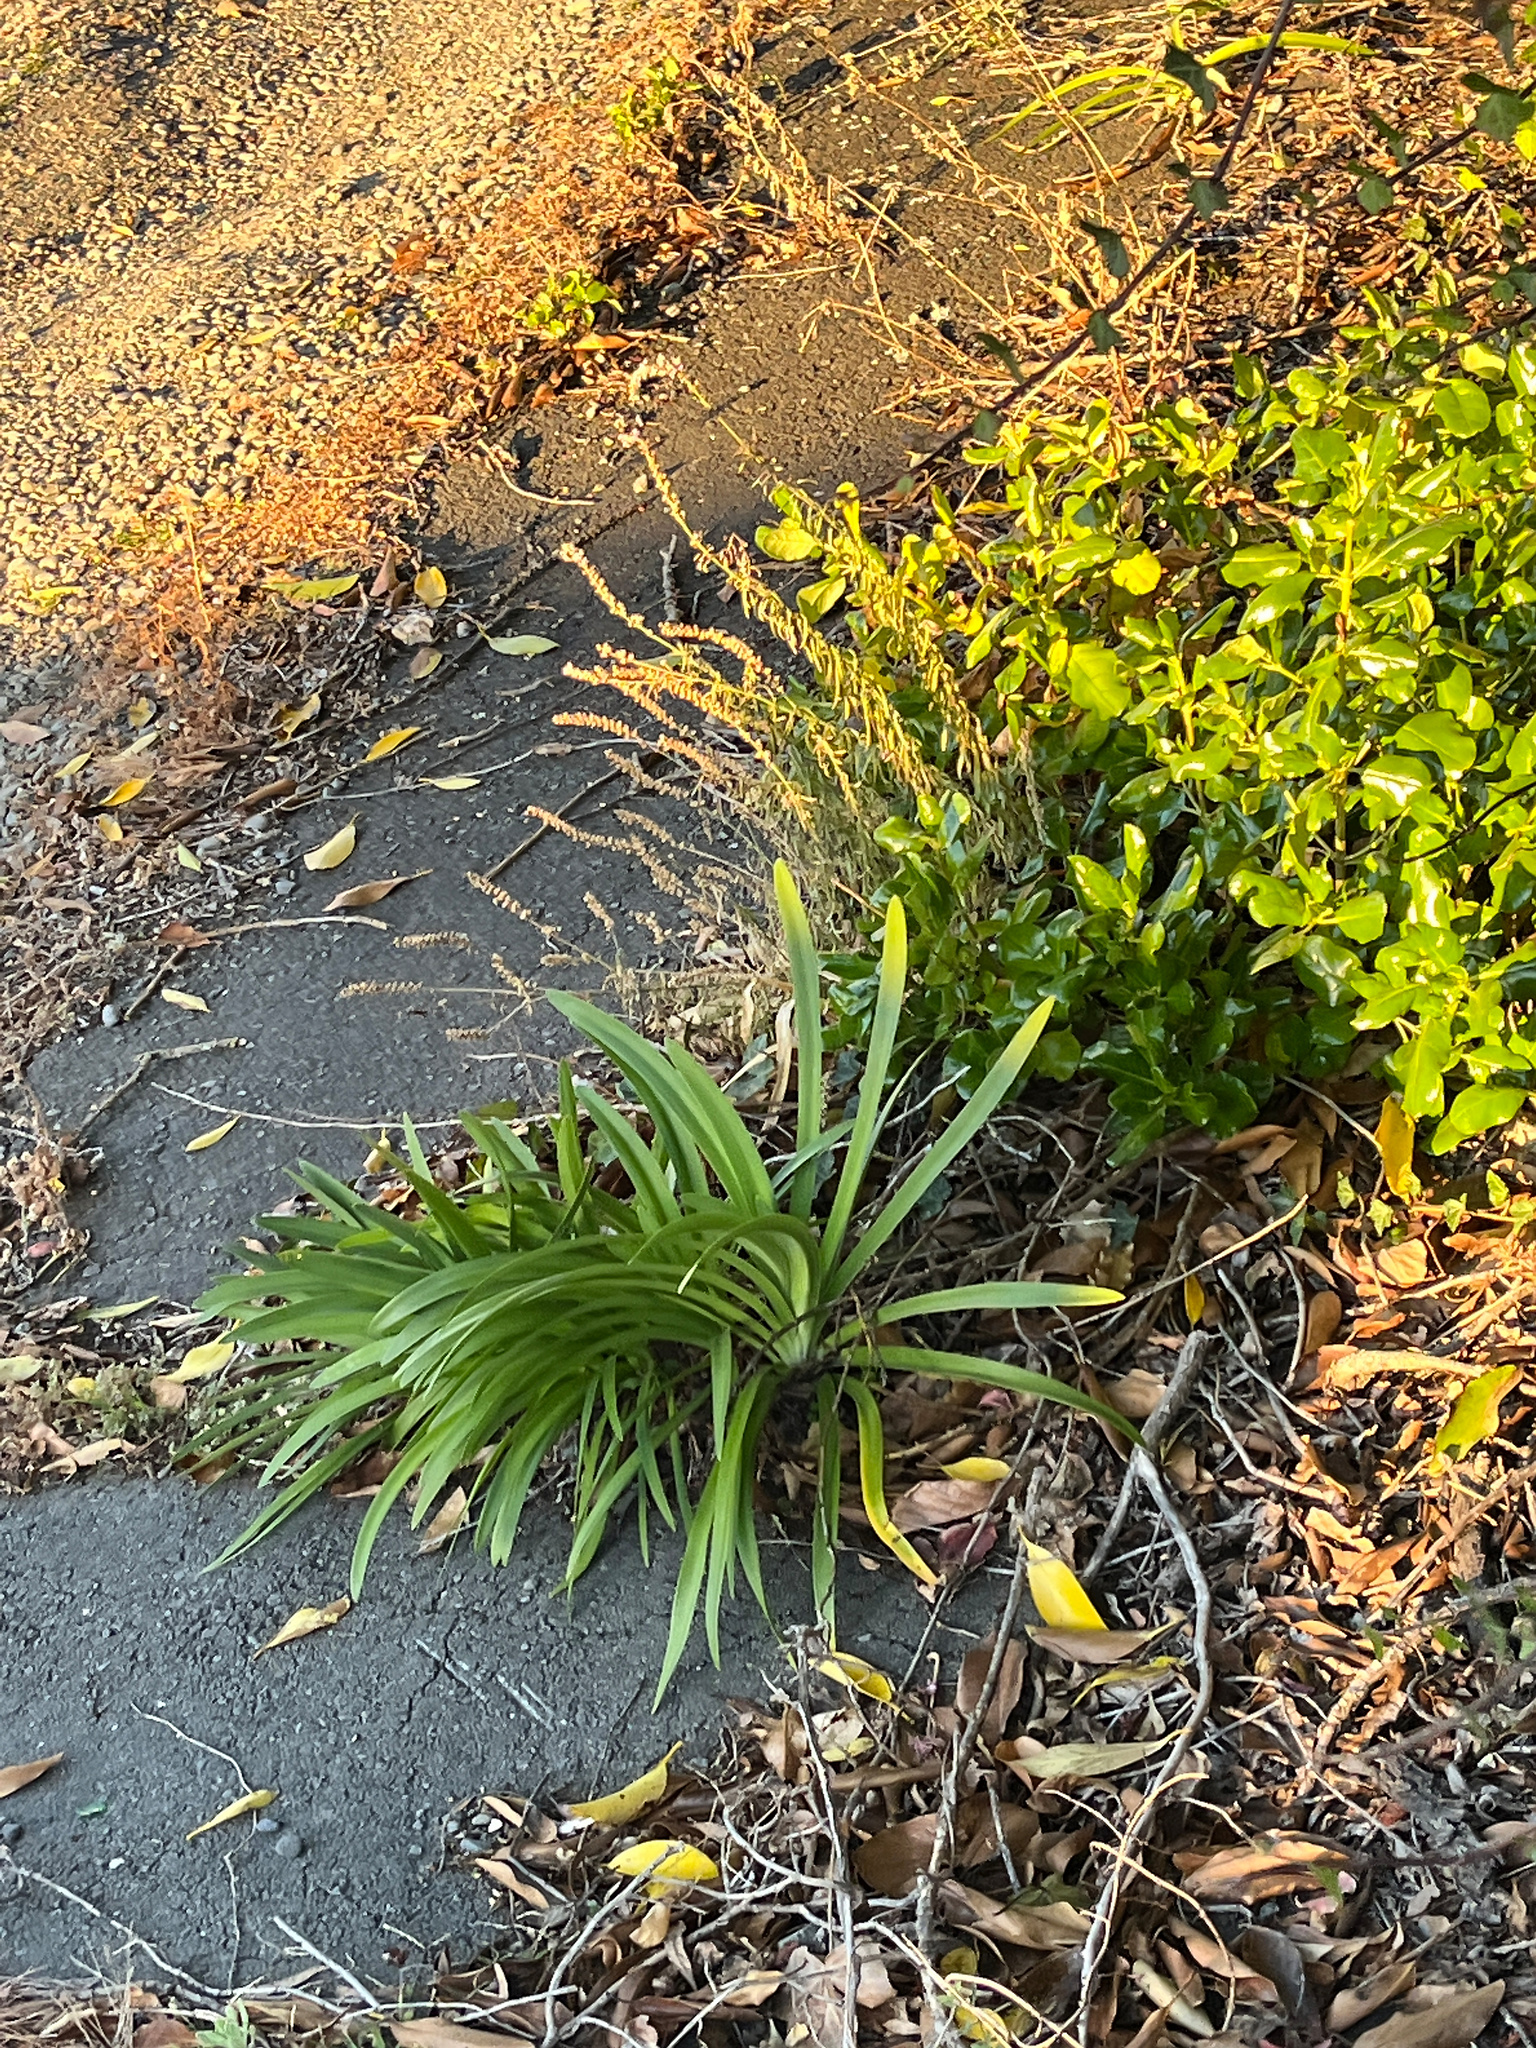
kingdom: Plantae
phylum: Tracheophyta
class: Liliopsida
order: Asparagales
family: Amaryllidaceae
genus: Agapanthus
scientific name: Agapanthus praecox
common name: African-lily
